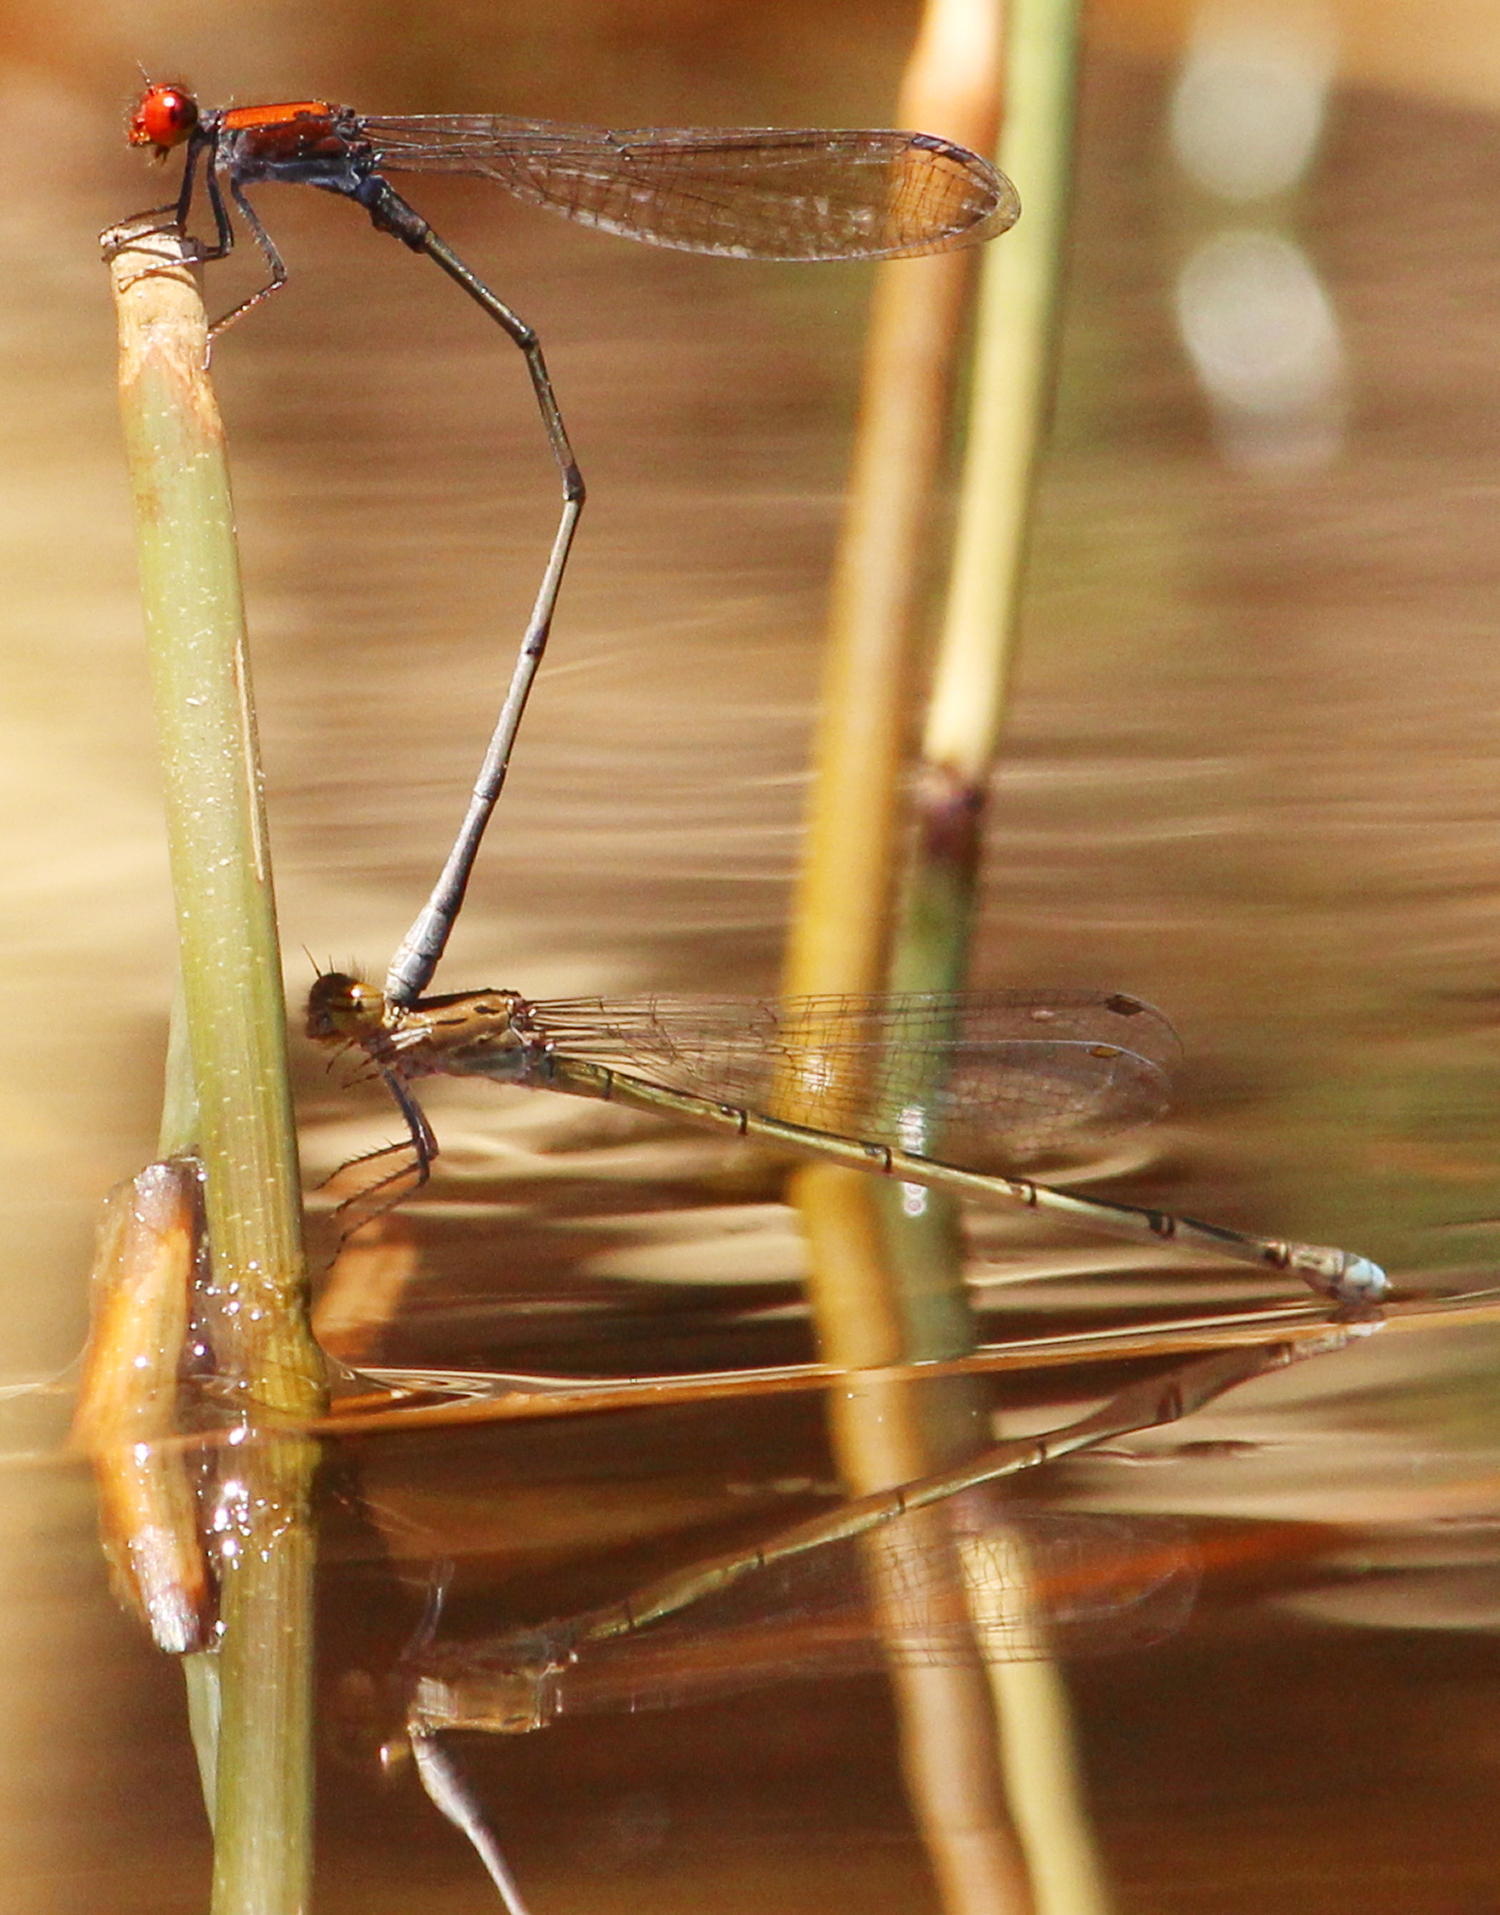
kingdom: Animalia
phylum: Arthropoda
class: Insecta
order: Odonata
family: Coenagrionidae
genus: Pseudagrion
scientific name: Pseudagrion massaicum
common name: Masai sprite
